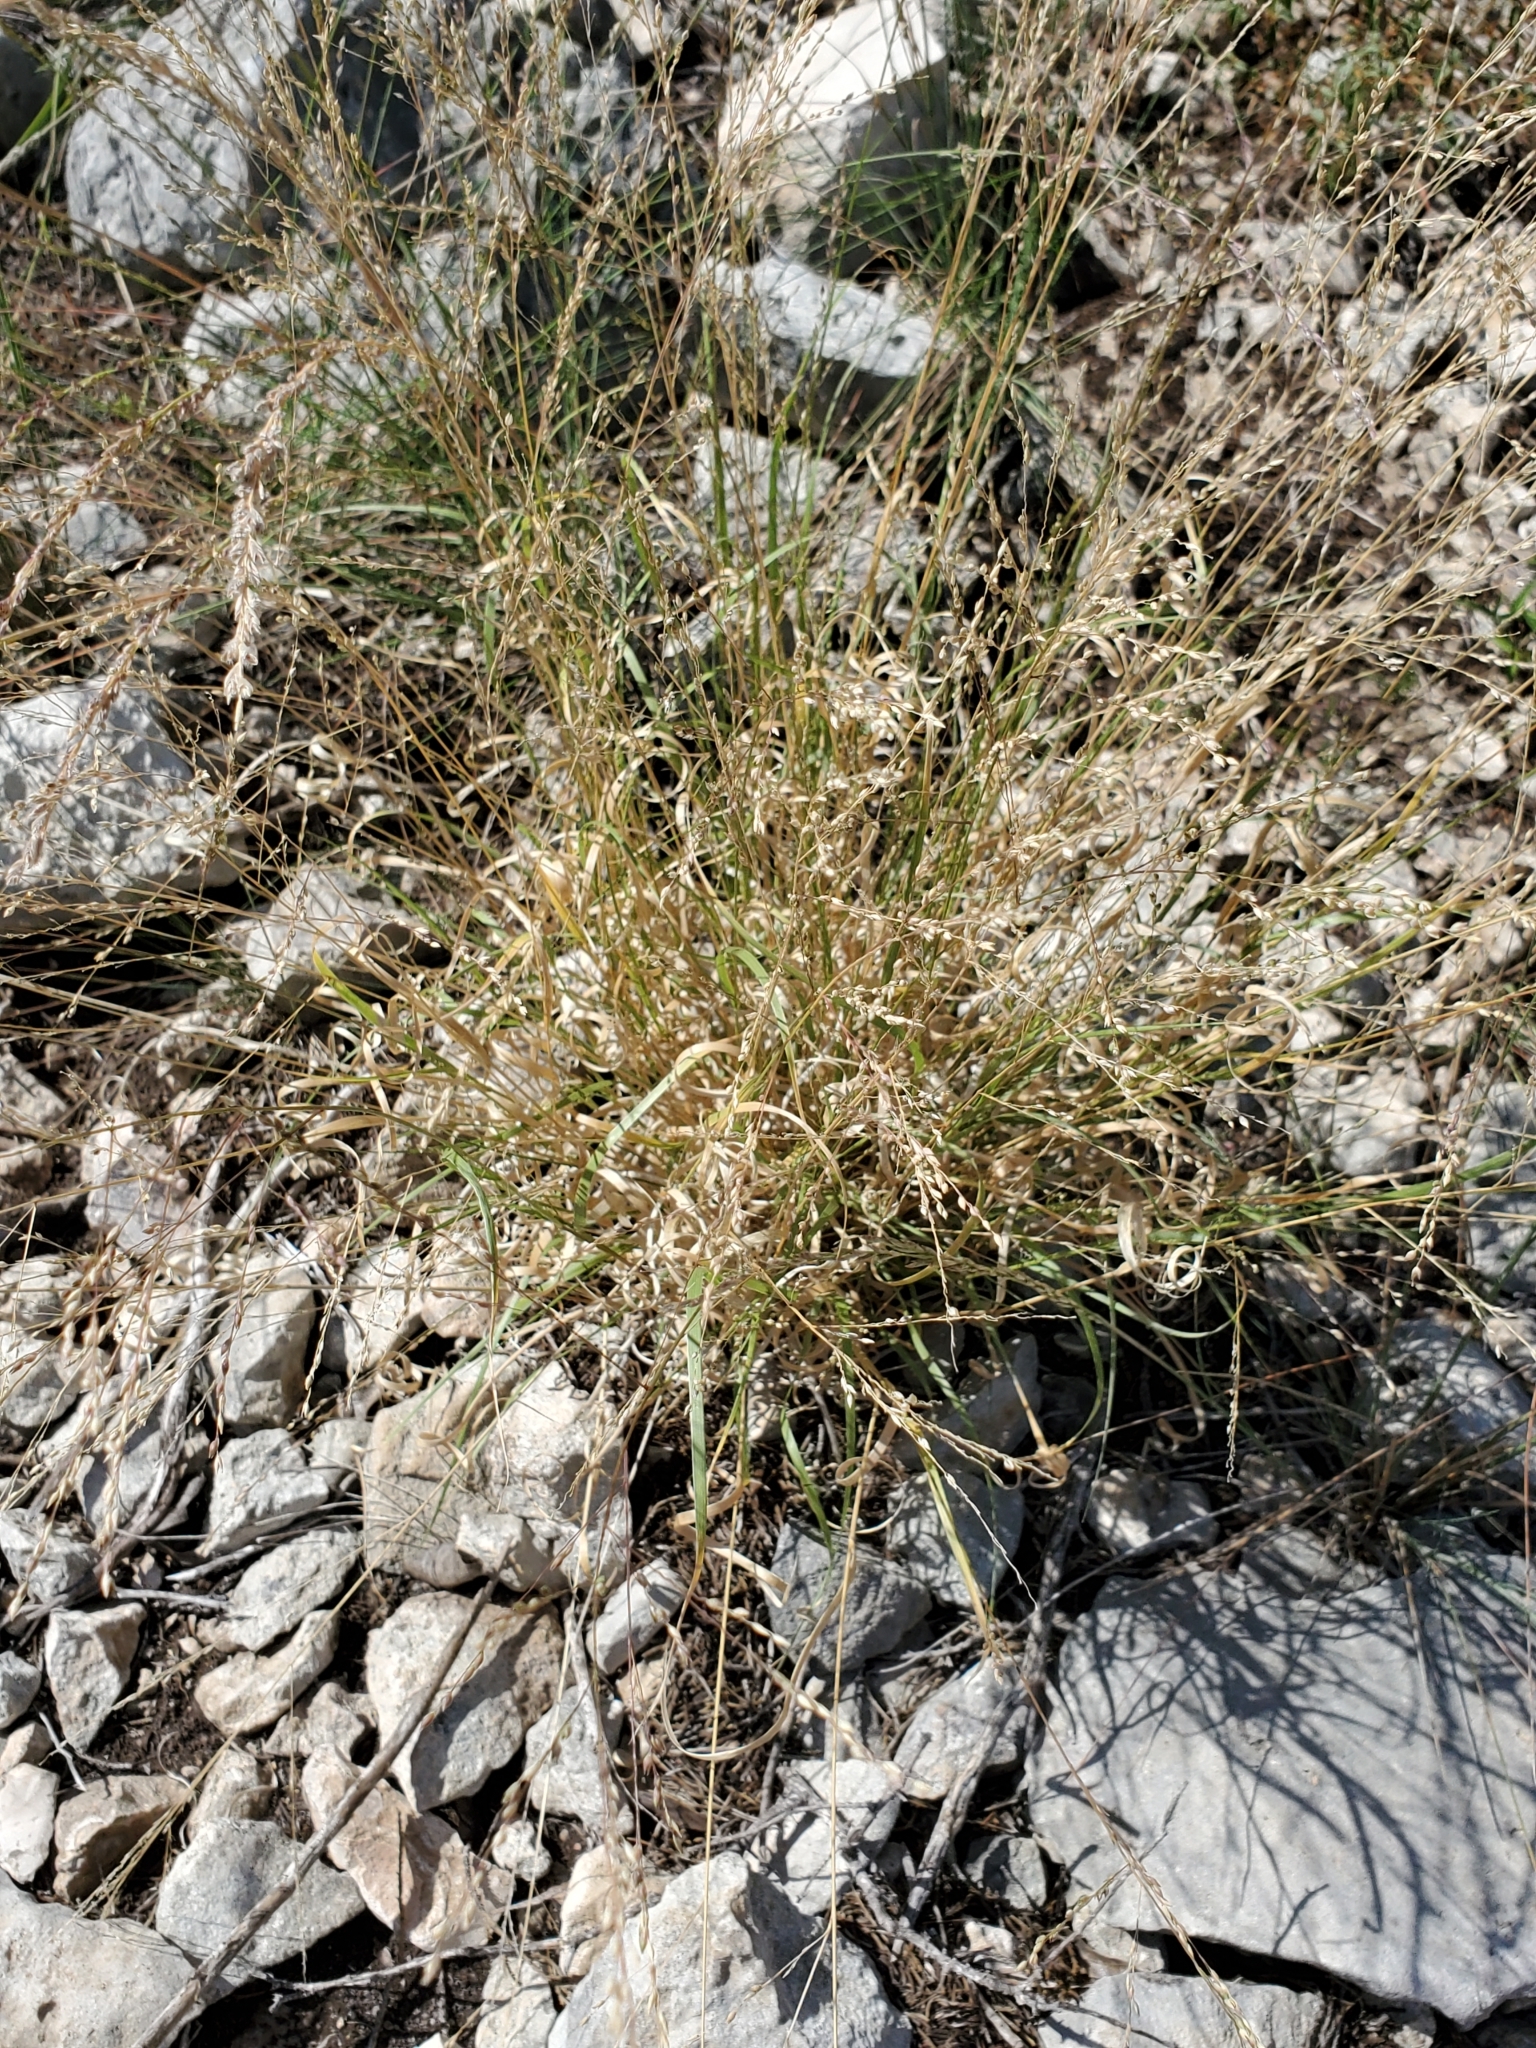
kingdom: Plantae
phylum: Tracheophyta
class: Liliopsida
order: Poales
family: Poaceae
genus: Panicum
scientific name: Panicum hallii
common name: Hall's witchgrass
